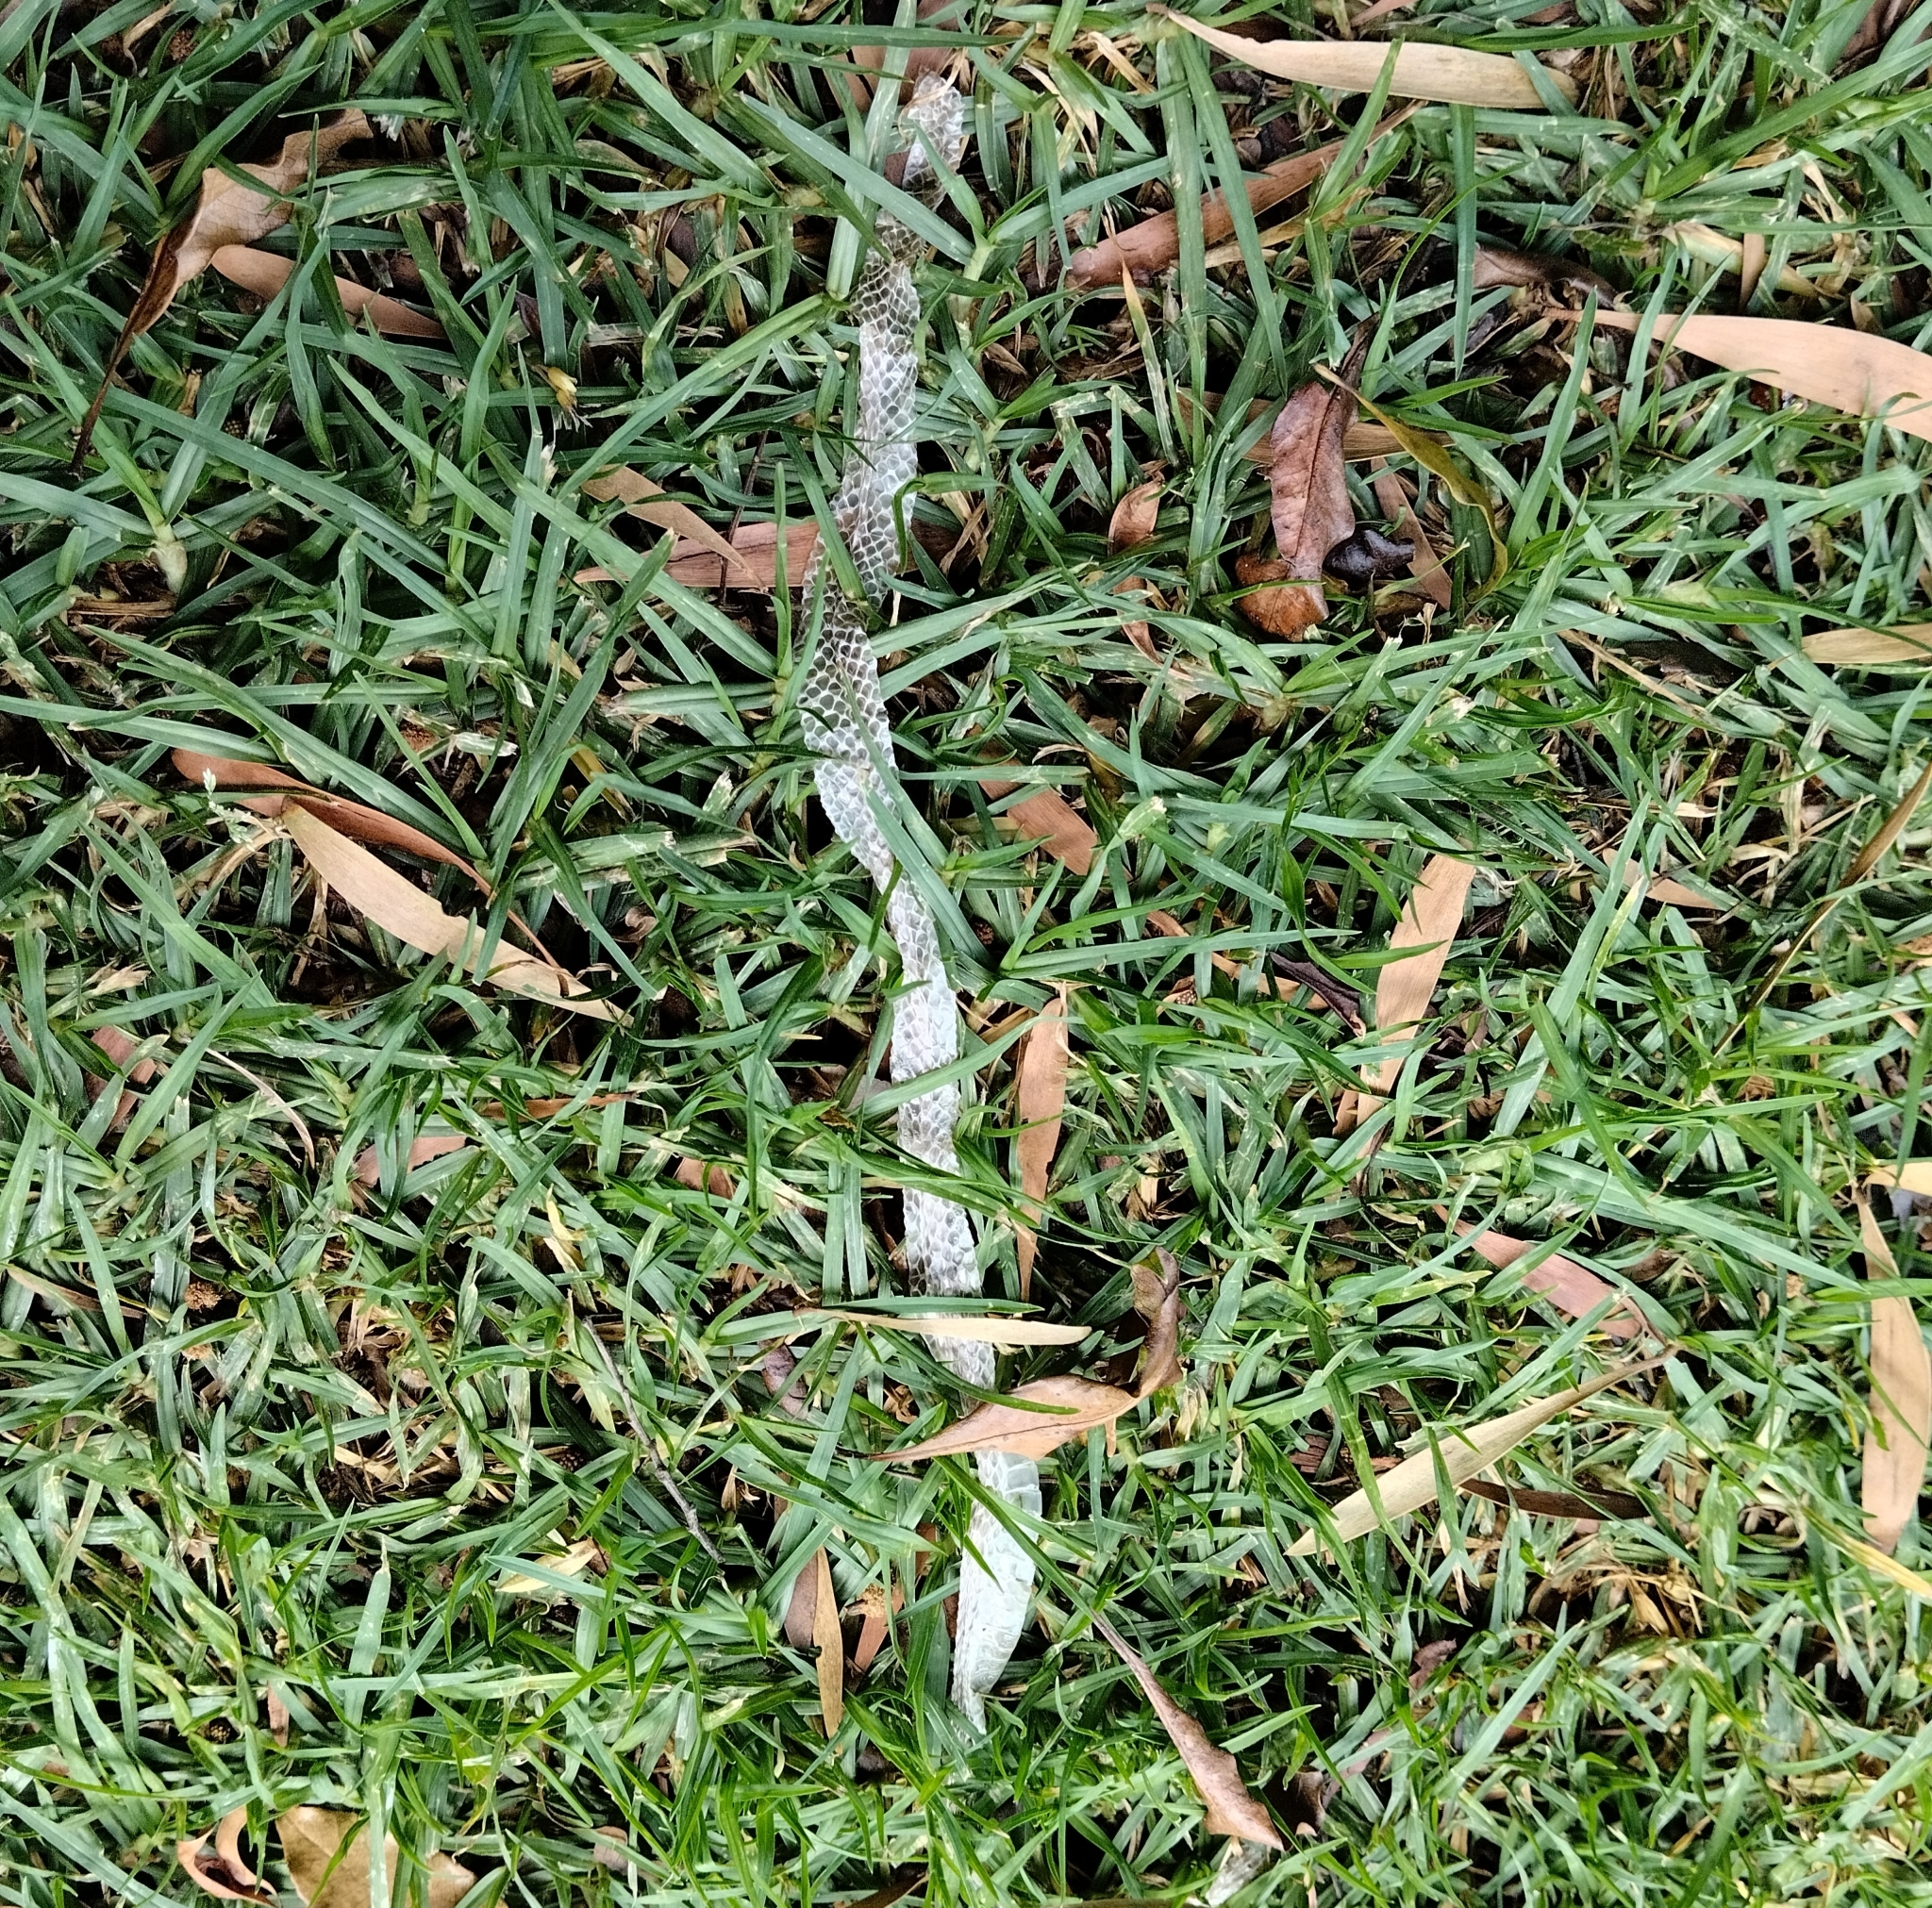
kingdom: Animalia
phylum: Chordata
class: Squamata
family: Colubridae
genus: Atractus
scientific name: Atractus crassicaudatus
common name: Thickhead ground snake
